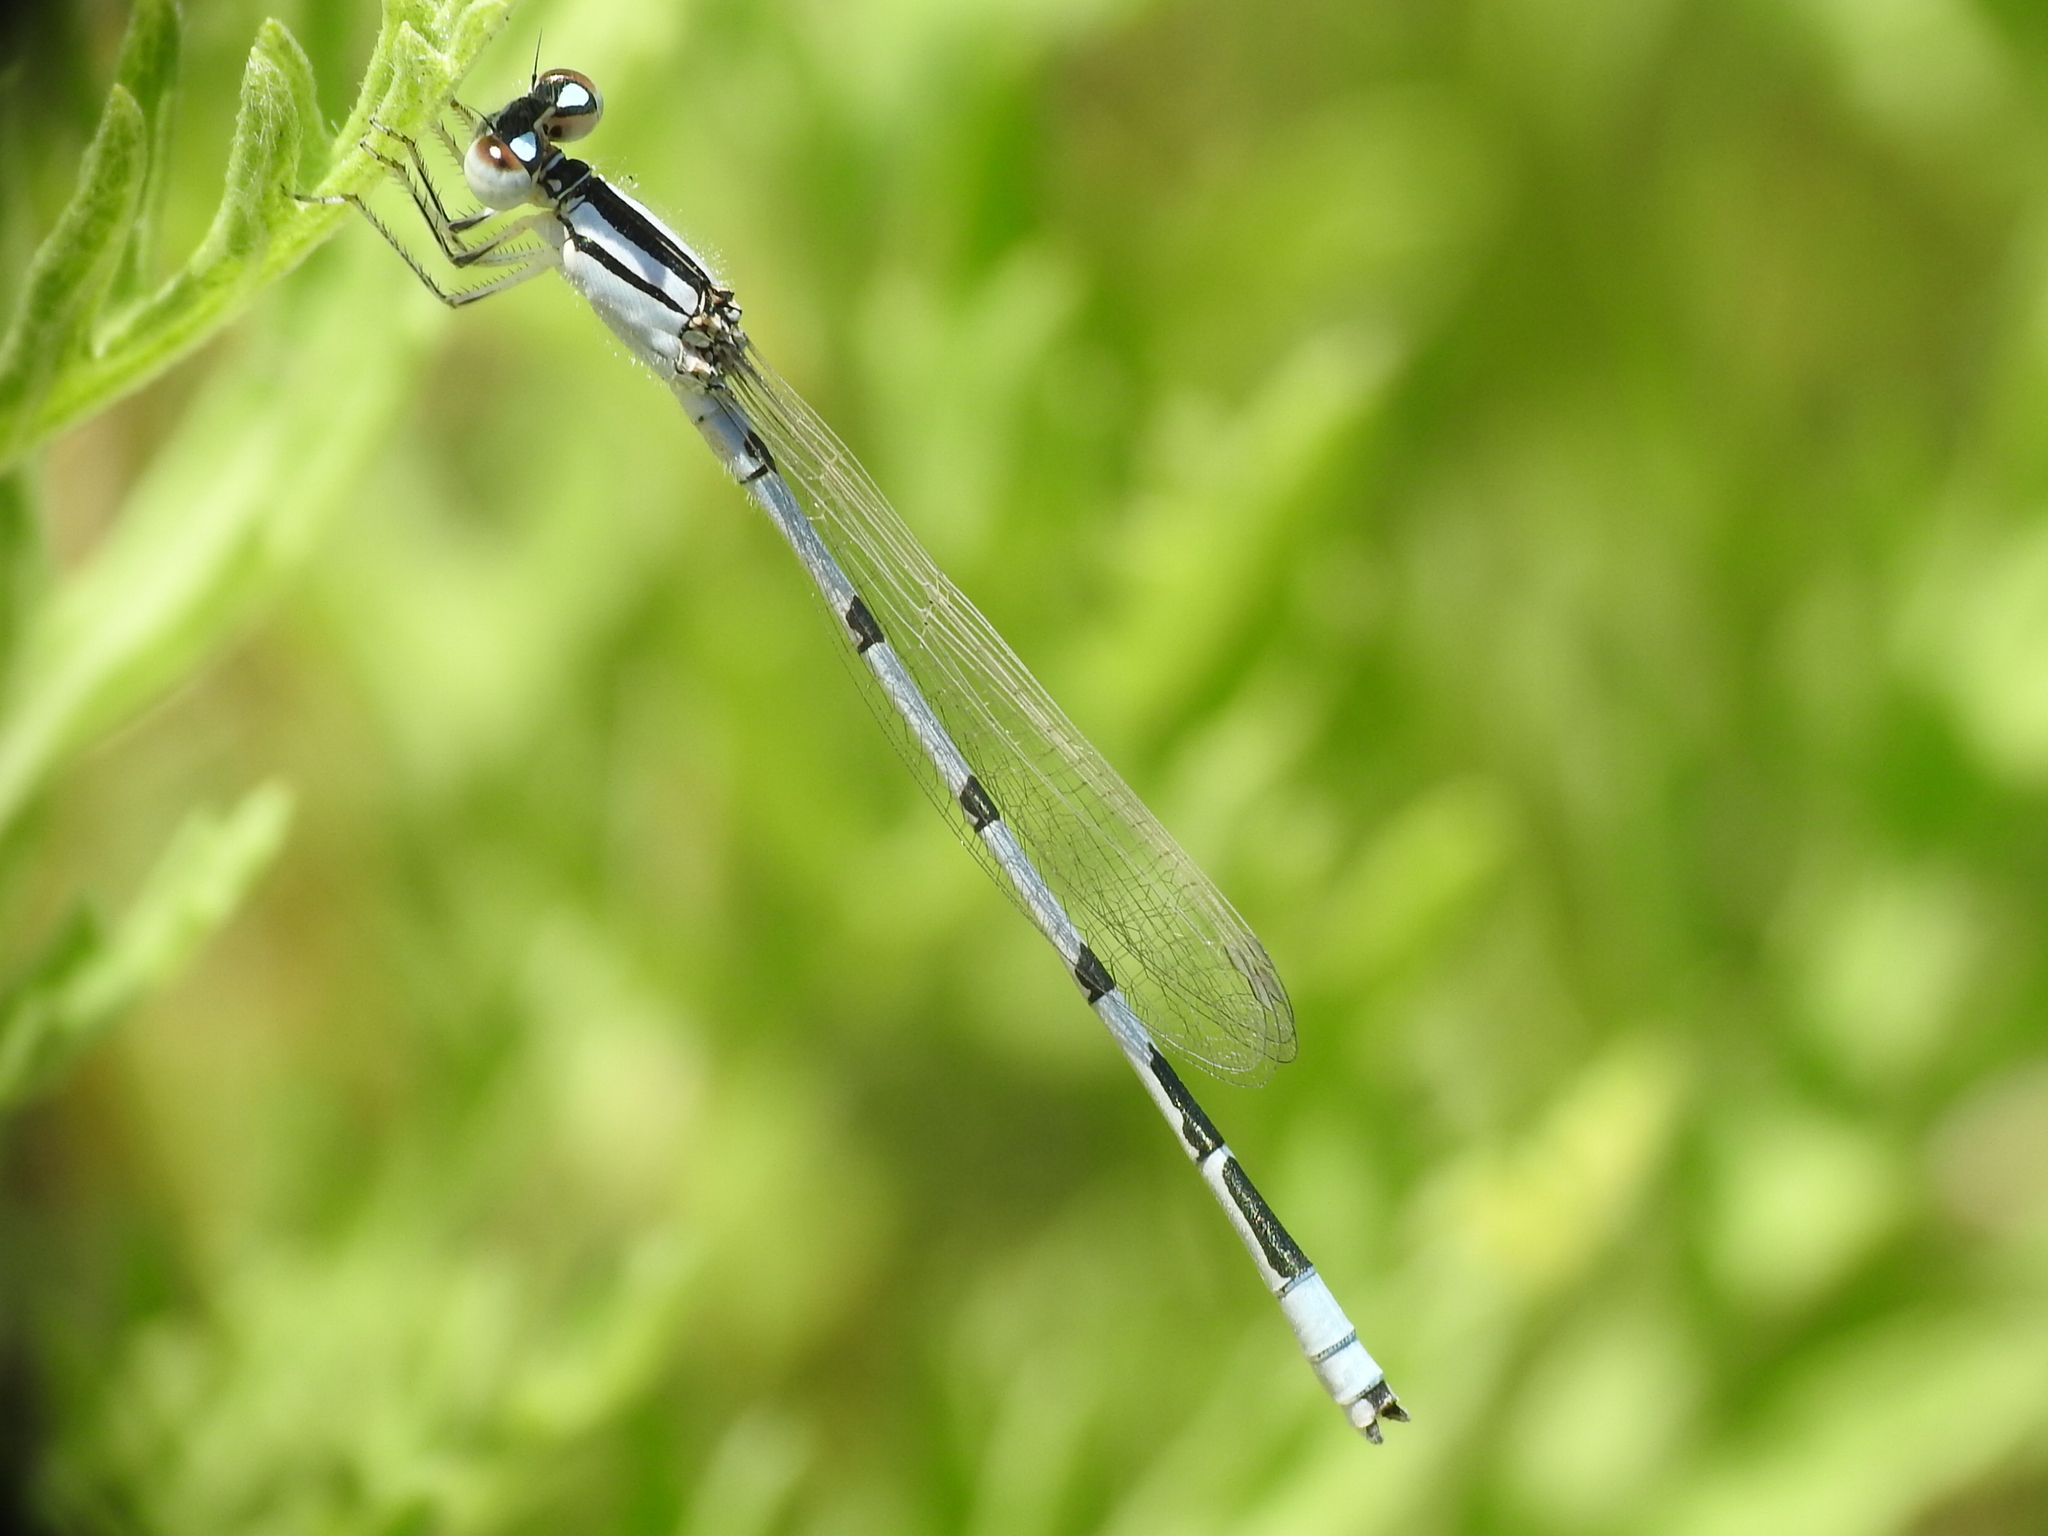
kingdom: Animalia
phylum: Arthropoda
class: Insecta
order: Odonata
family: Coenagrionidae
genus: Enallagma
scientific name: Enallagma civile
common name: Damselfly
